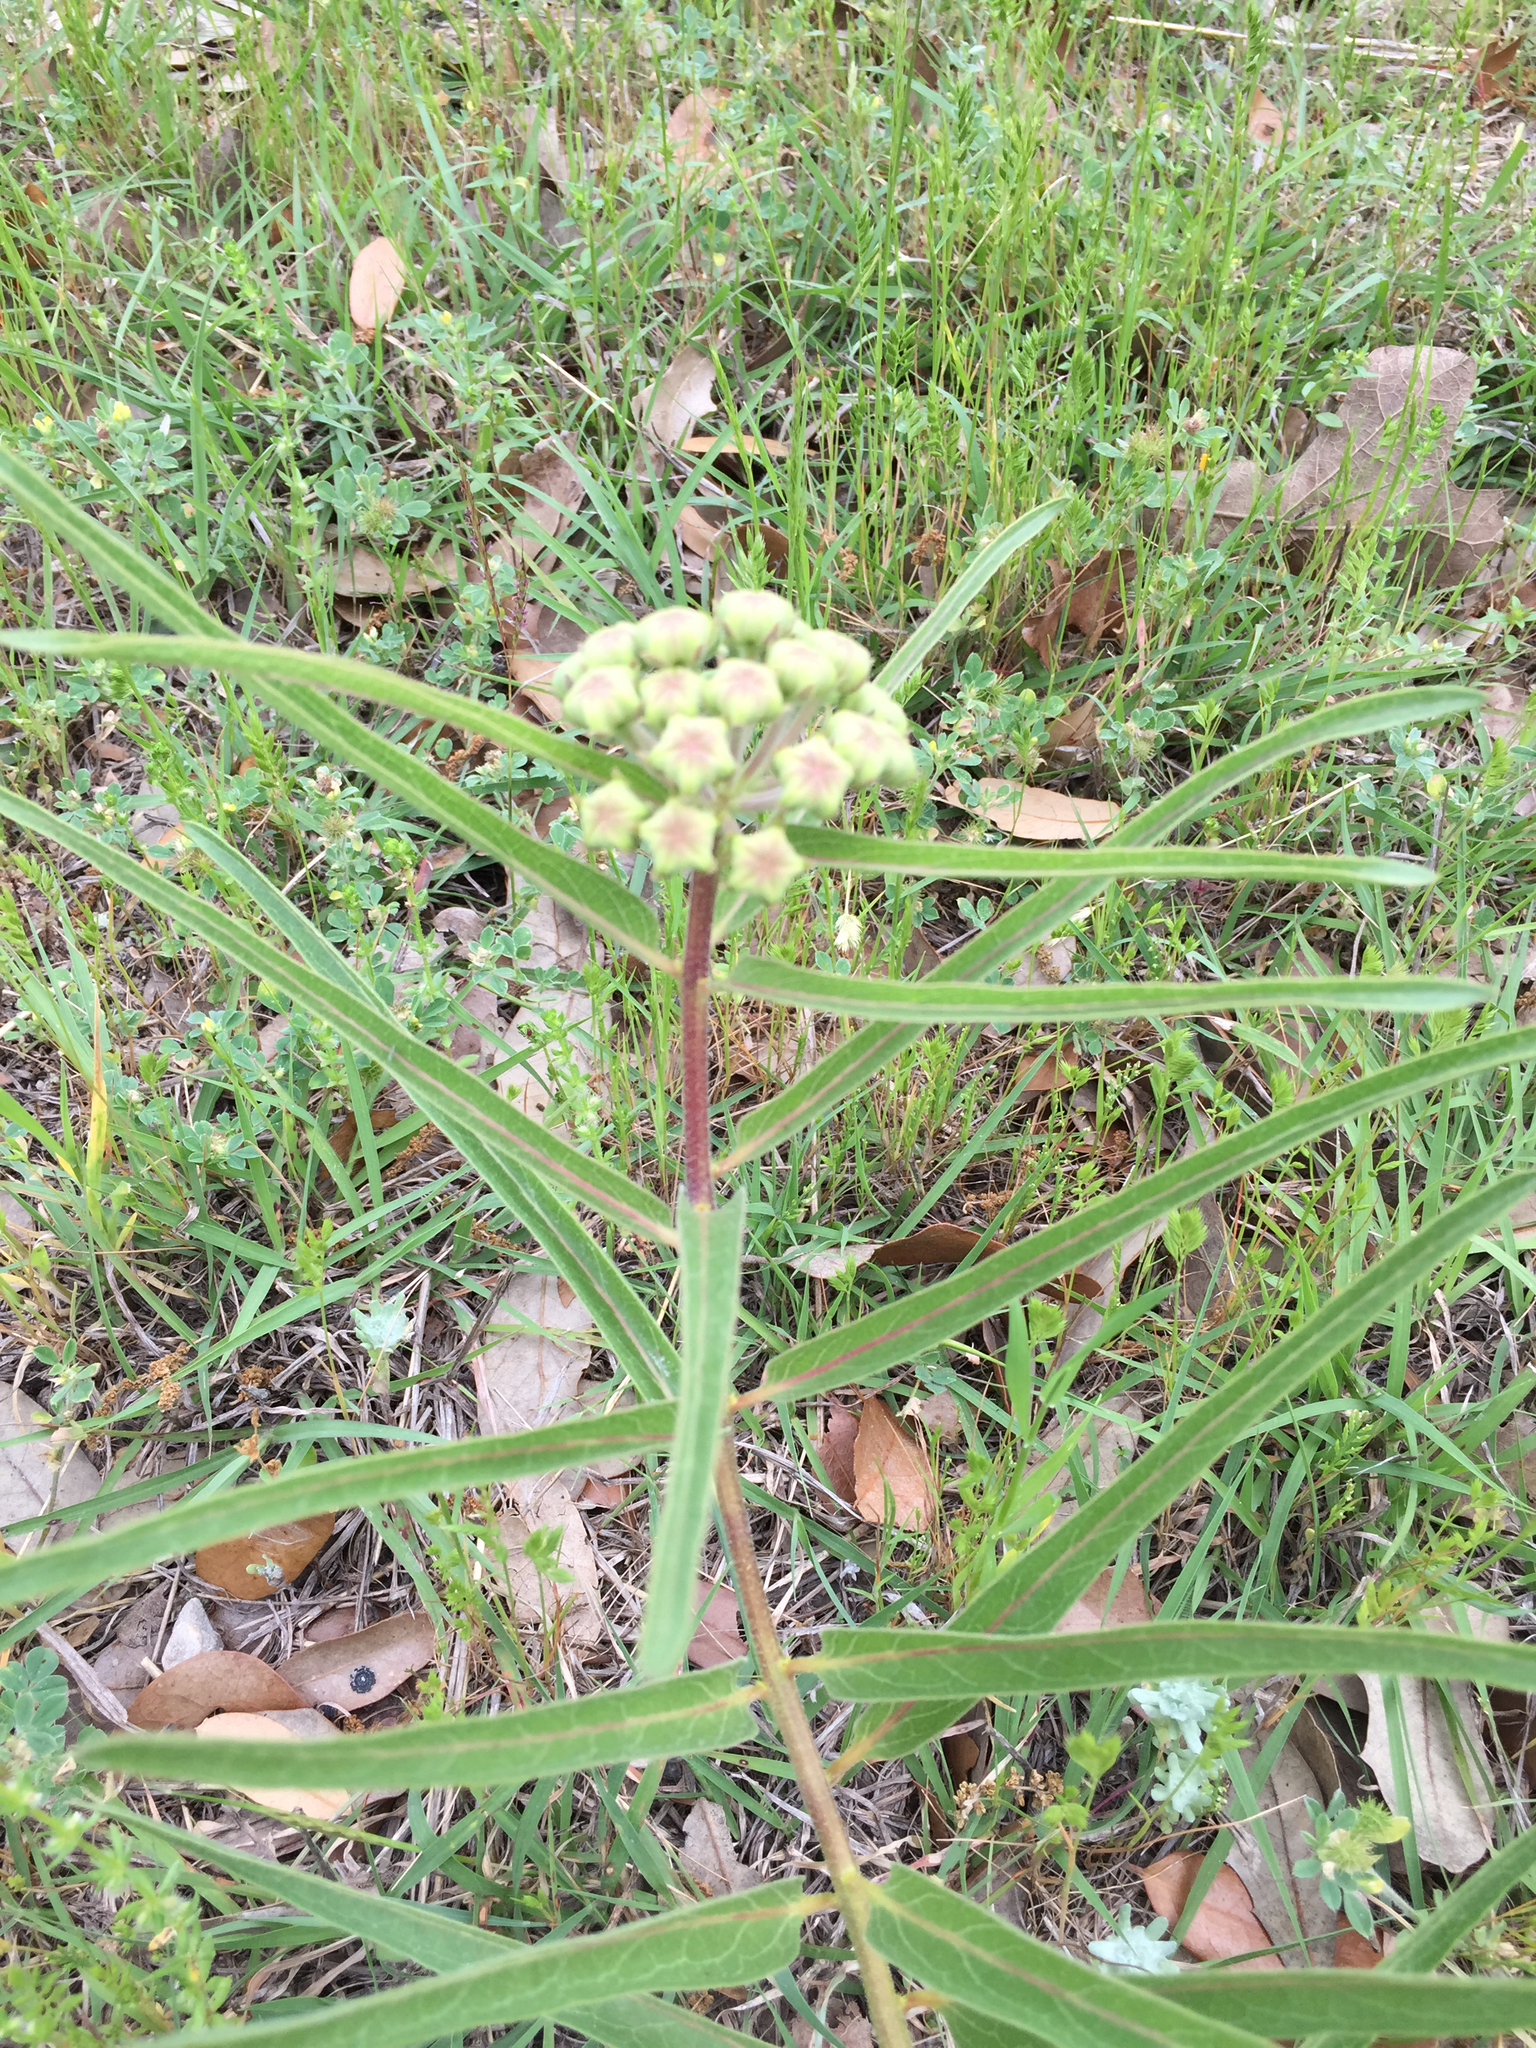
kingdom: Plantae
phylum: Tracheophyta
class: Magnoliopsida
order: Gentianales
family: Apocynaceae
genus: Asclepias
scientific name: Asclepias asperula
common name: Antelope horns
